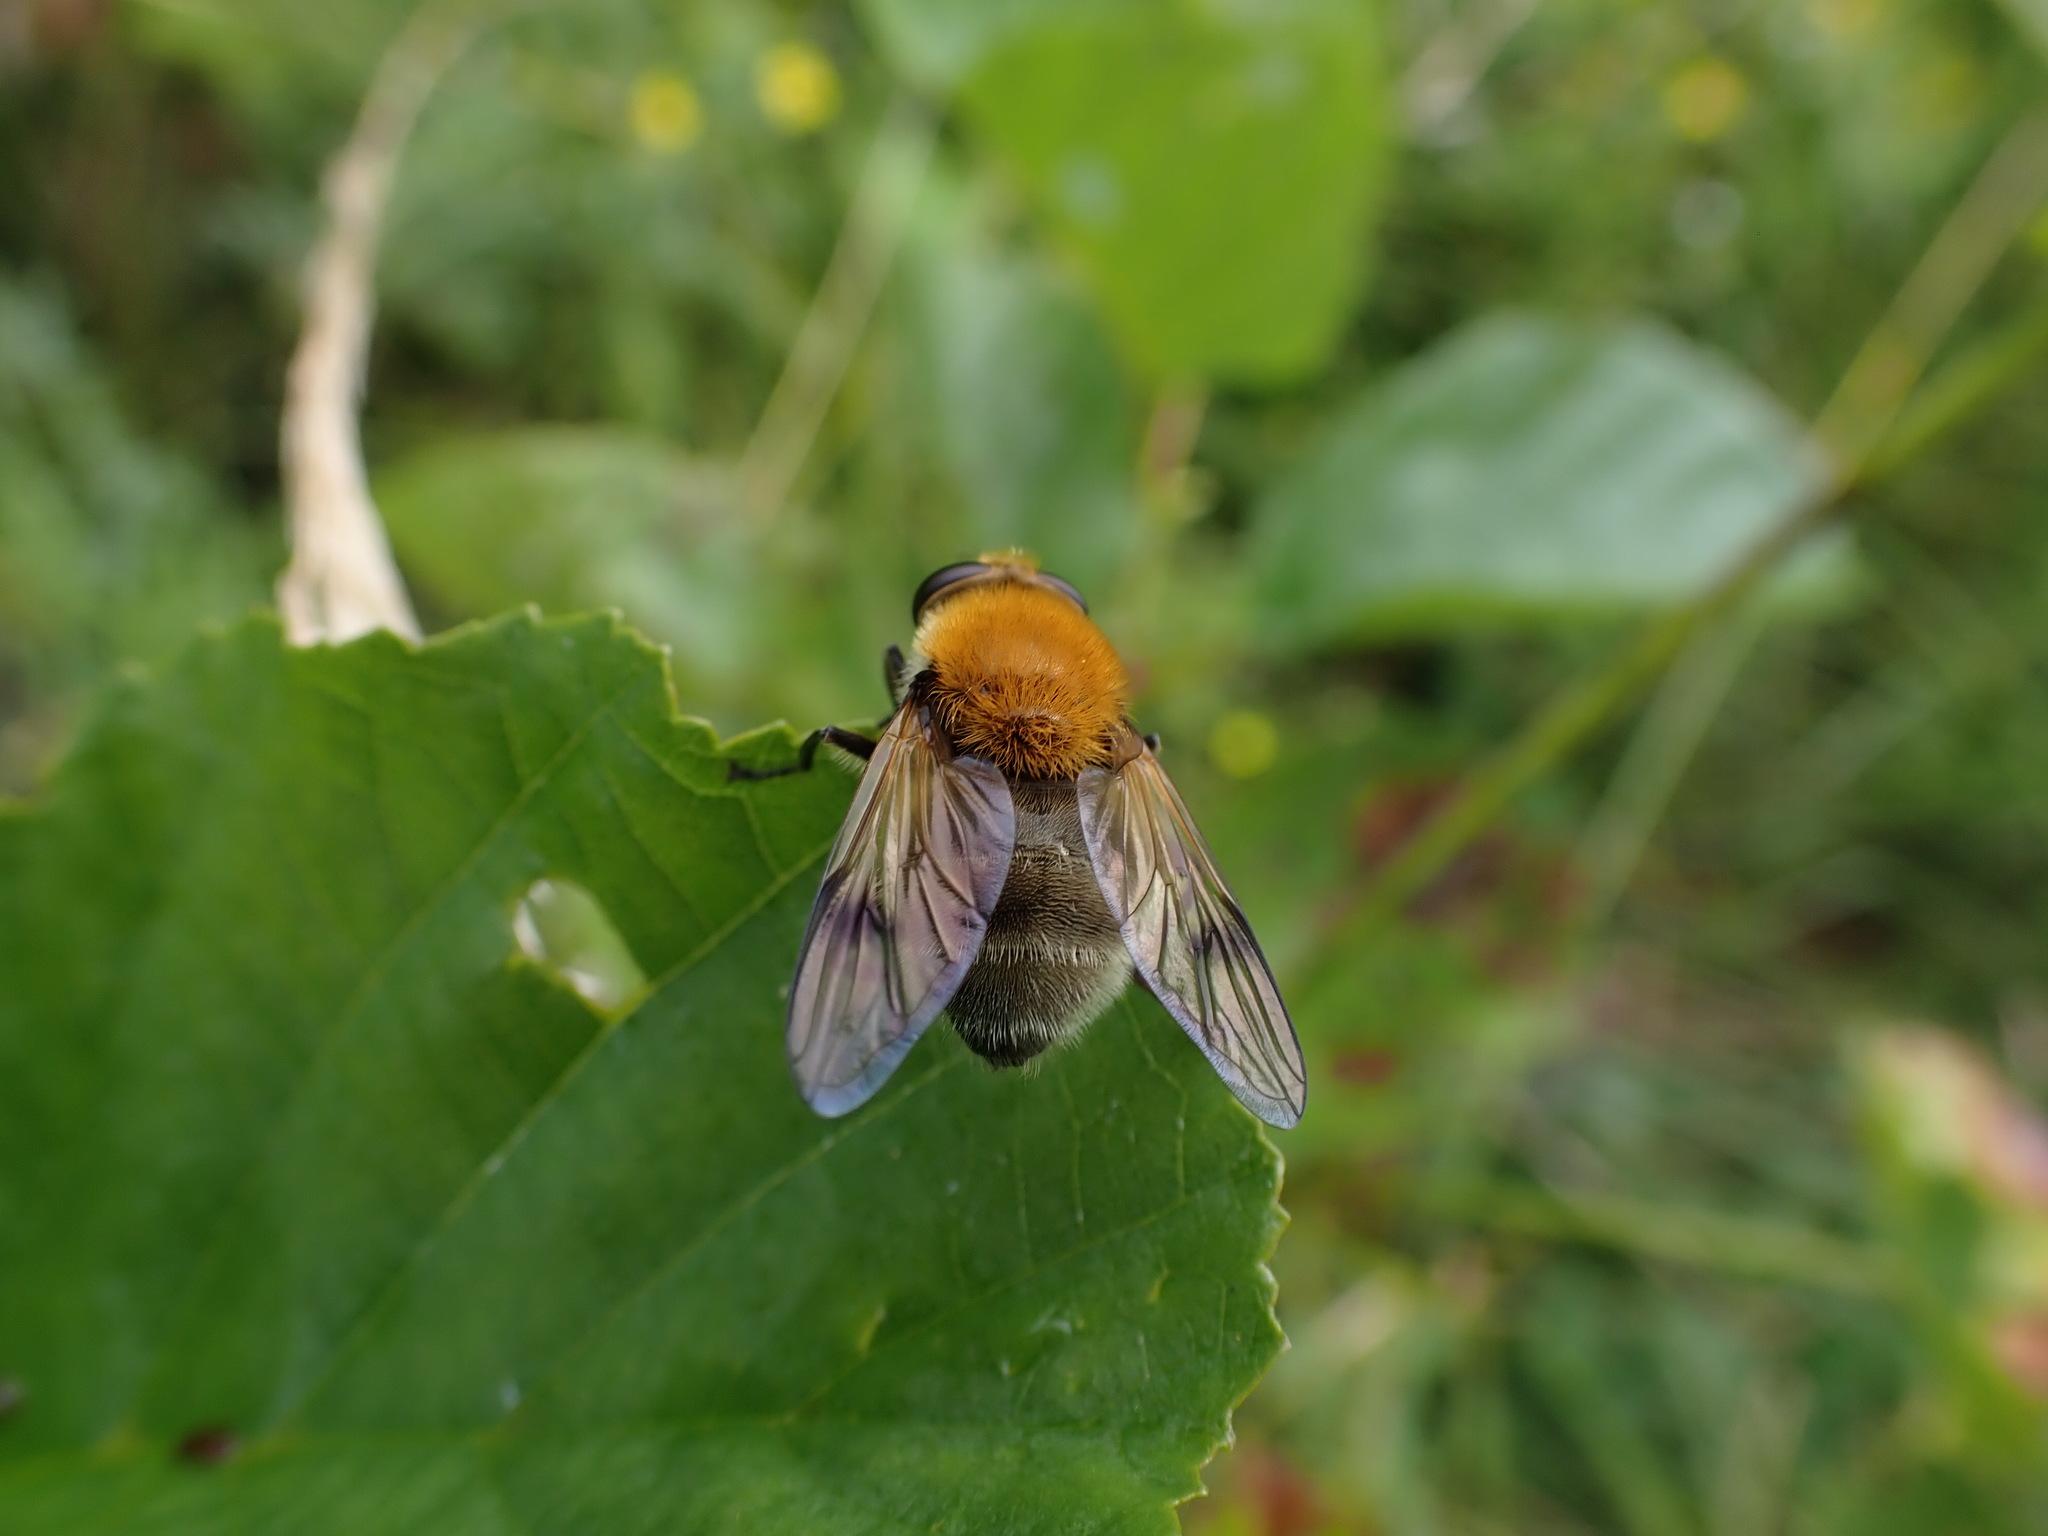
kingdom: Animalia
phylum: Arthropoda
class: Insecta
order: Diptera
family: Syrphidae
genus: Sericomyia
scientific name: Sericomyia superbiens
